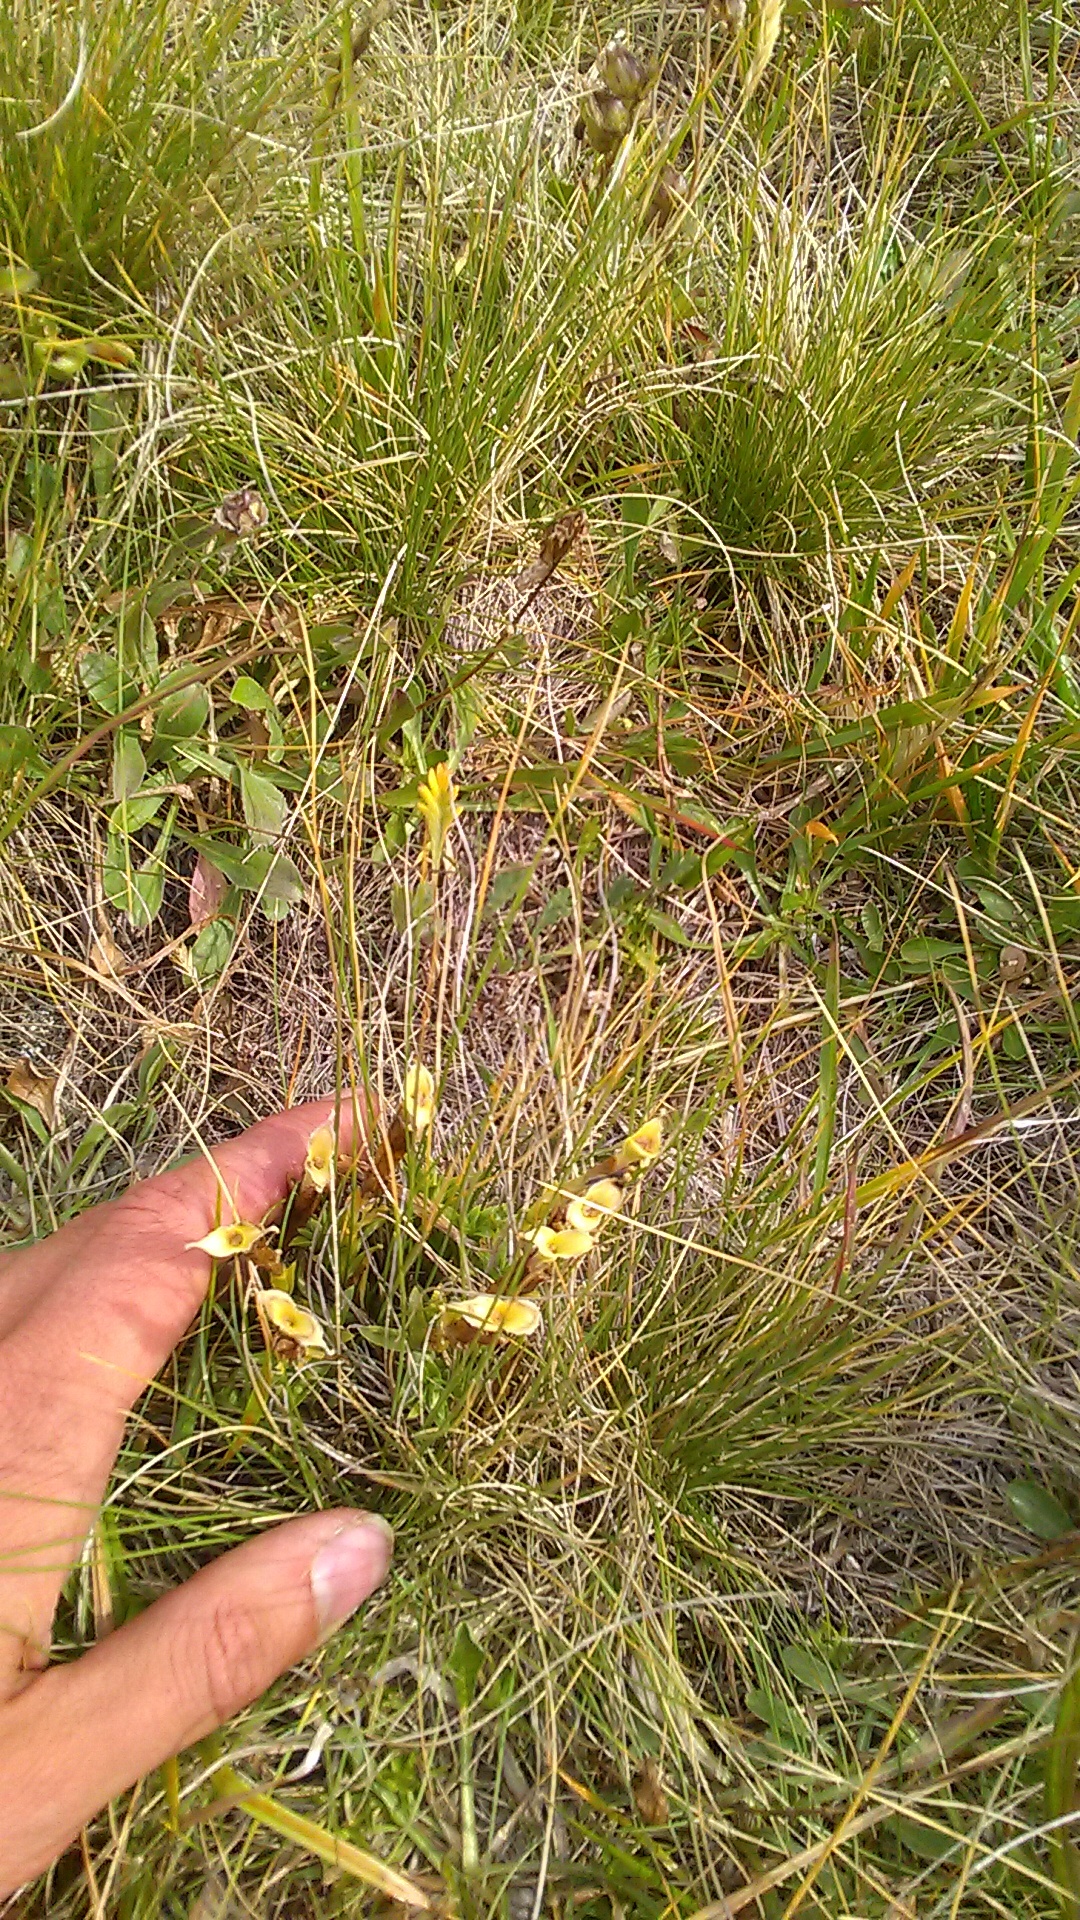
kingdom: Plantae
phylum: Tracheophyta
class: Magnoliopsida
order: Gentianales
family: Gentianaceae
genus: Gentiana
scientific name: Gentiana dshimilensis
